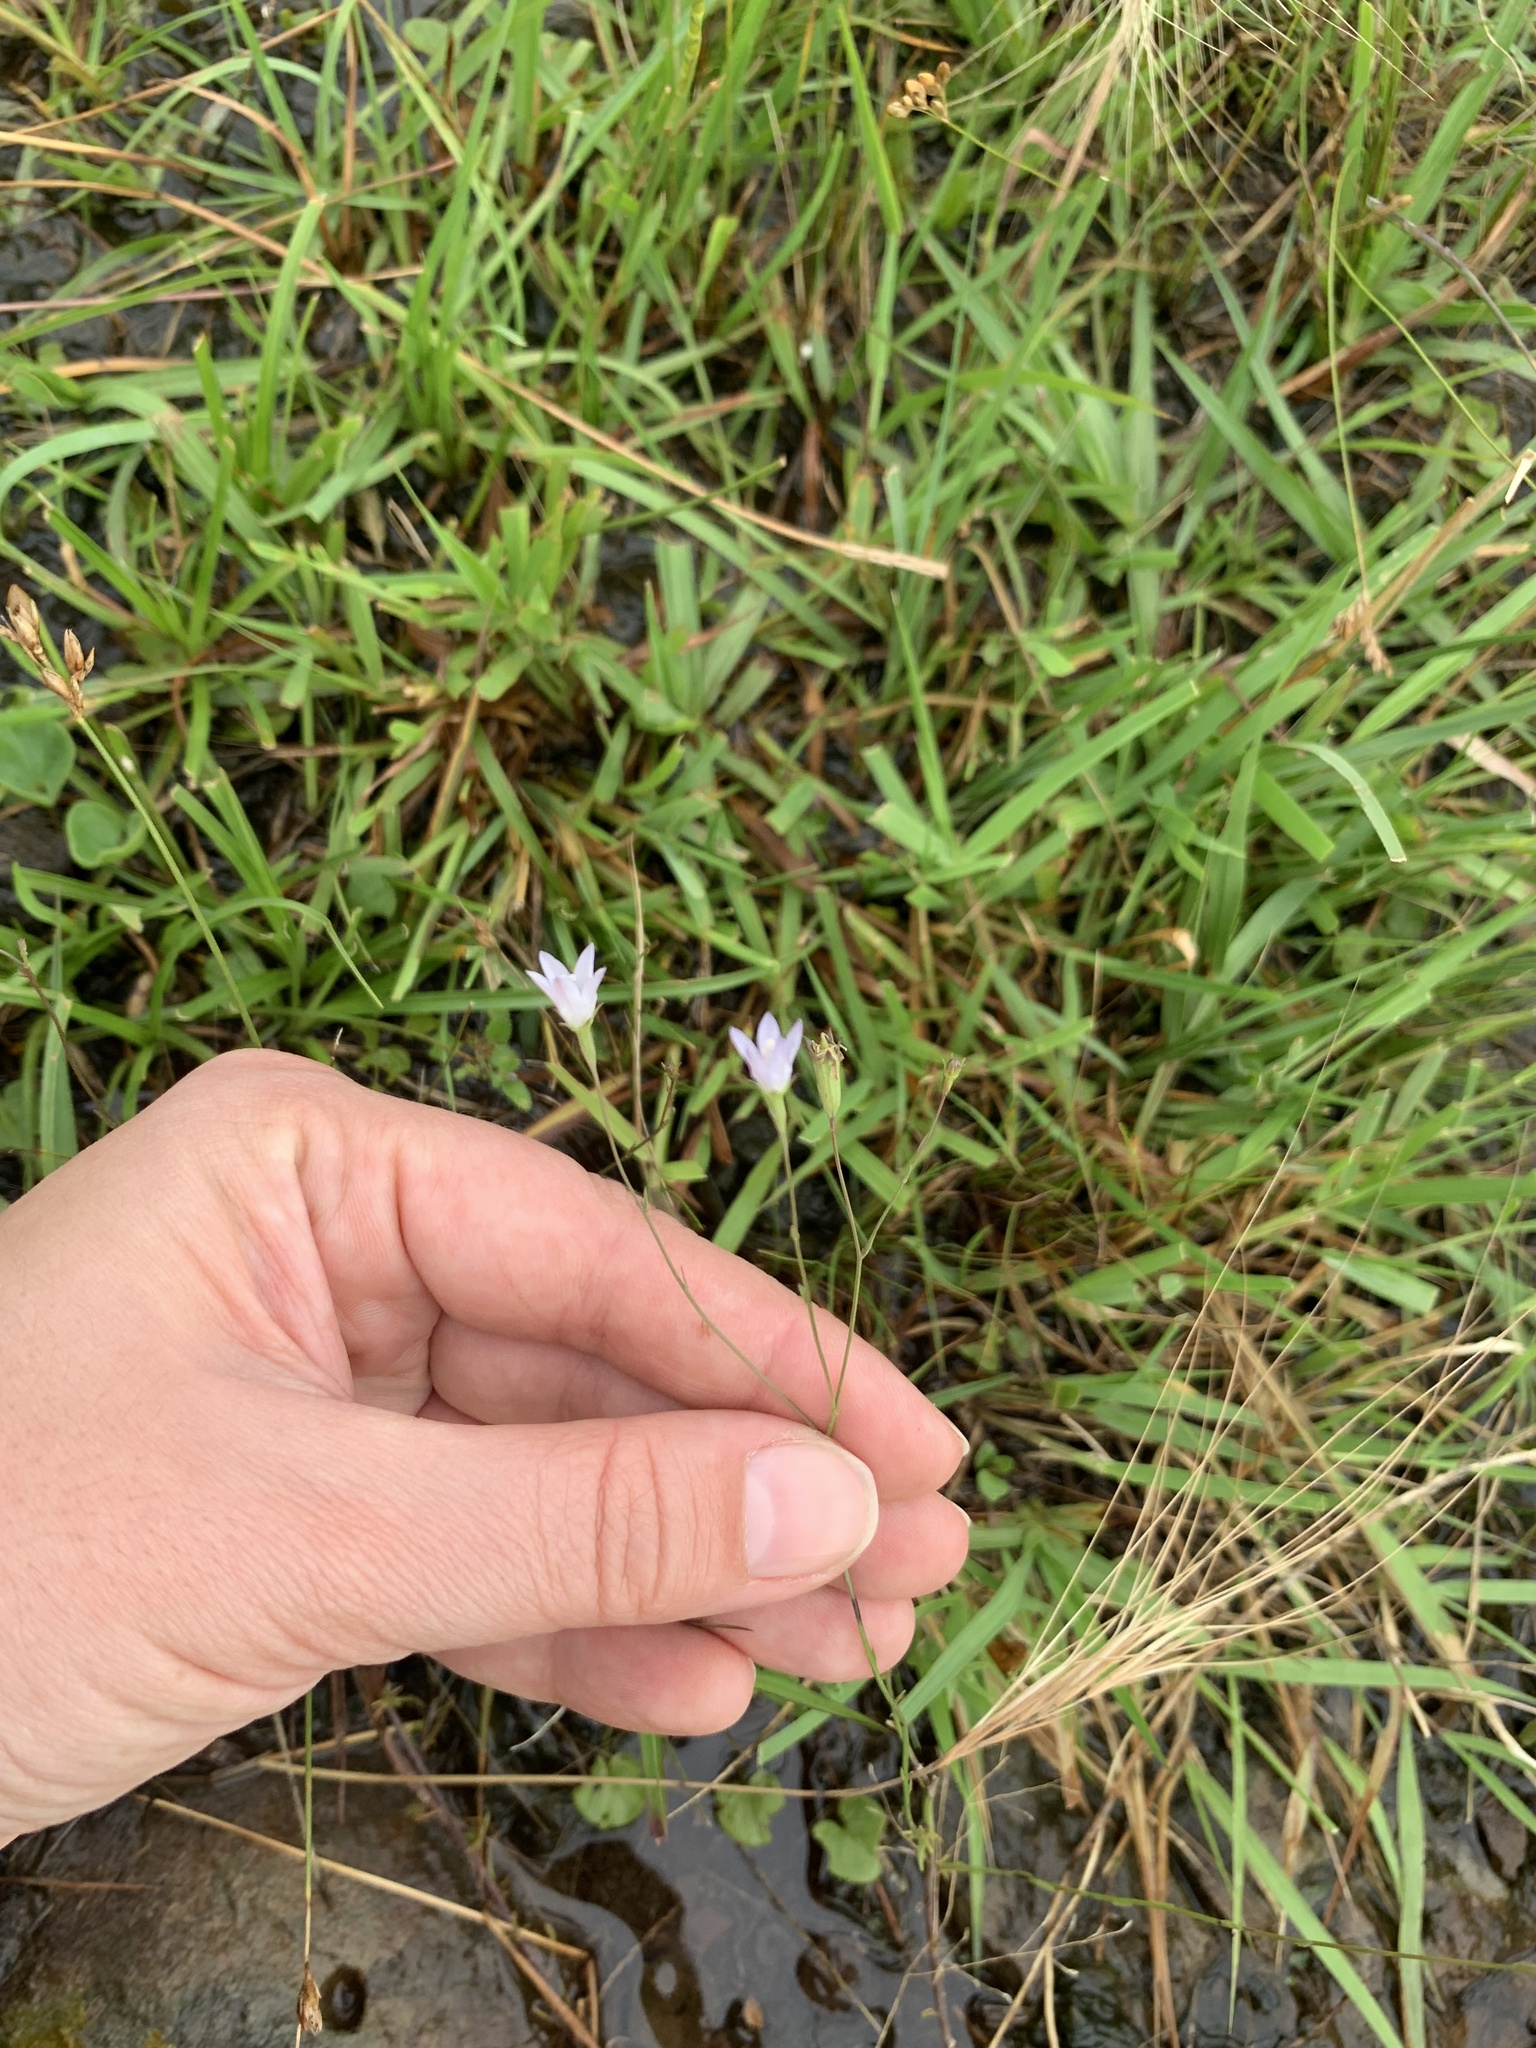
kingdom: Plantae
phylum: Tracheophyta
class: Magnoliopsida
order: Asterales
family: Campanulaceae
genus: Wahlenbergia
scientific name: Wahlenbergia linarioides
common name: Tuffybells
